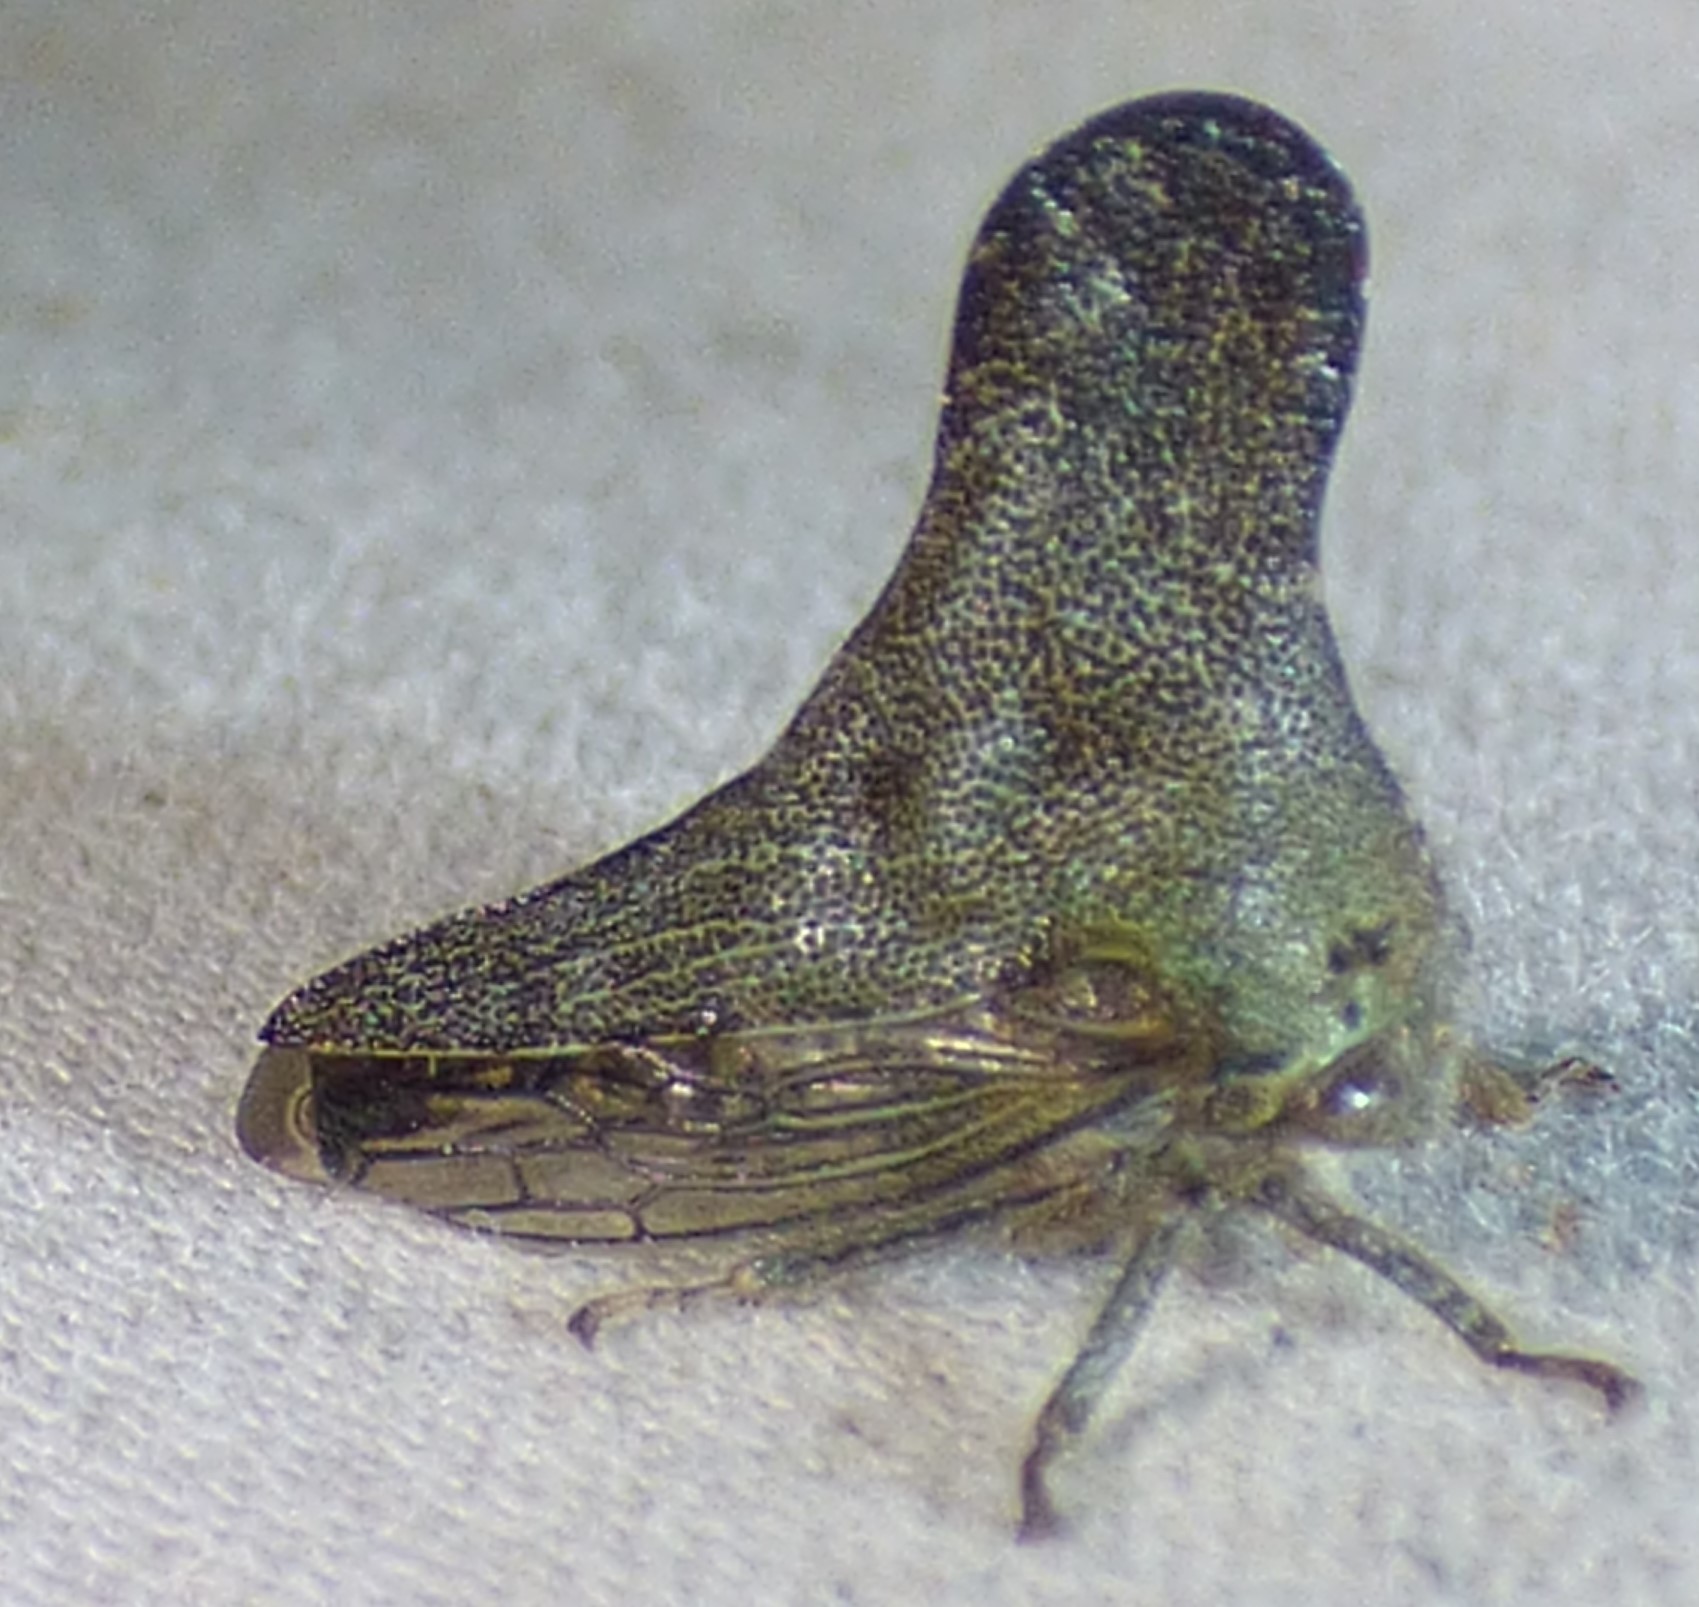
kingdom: Animalia
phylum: Arthropoda
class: Insecta
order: Hemiptera
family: Membracidae
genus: Telonaca
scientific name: Telonaca alta
